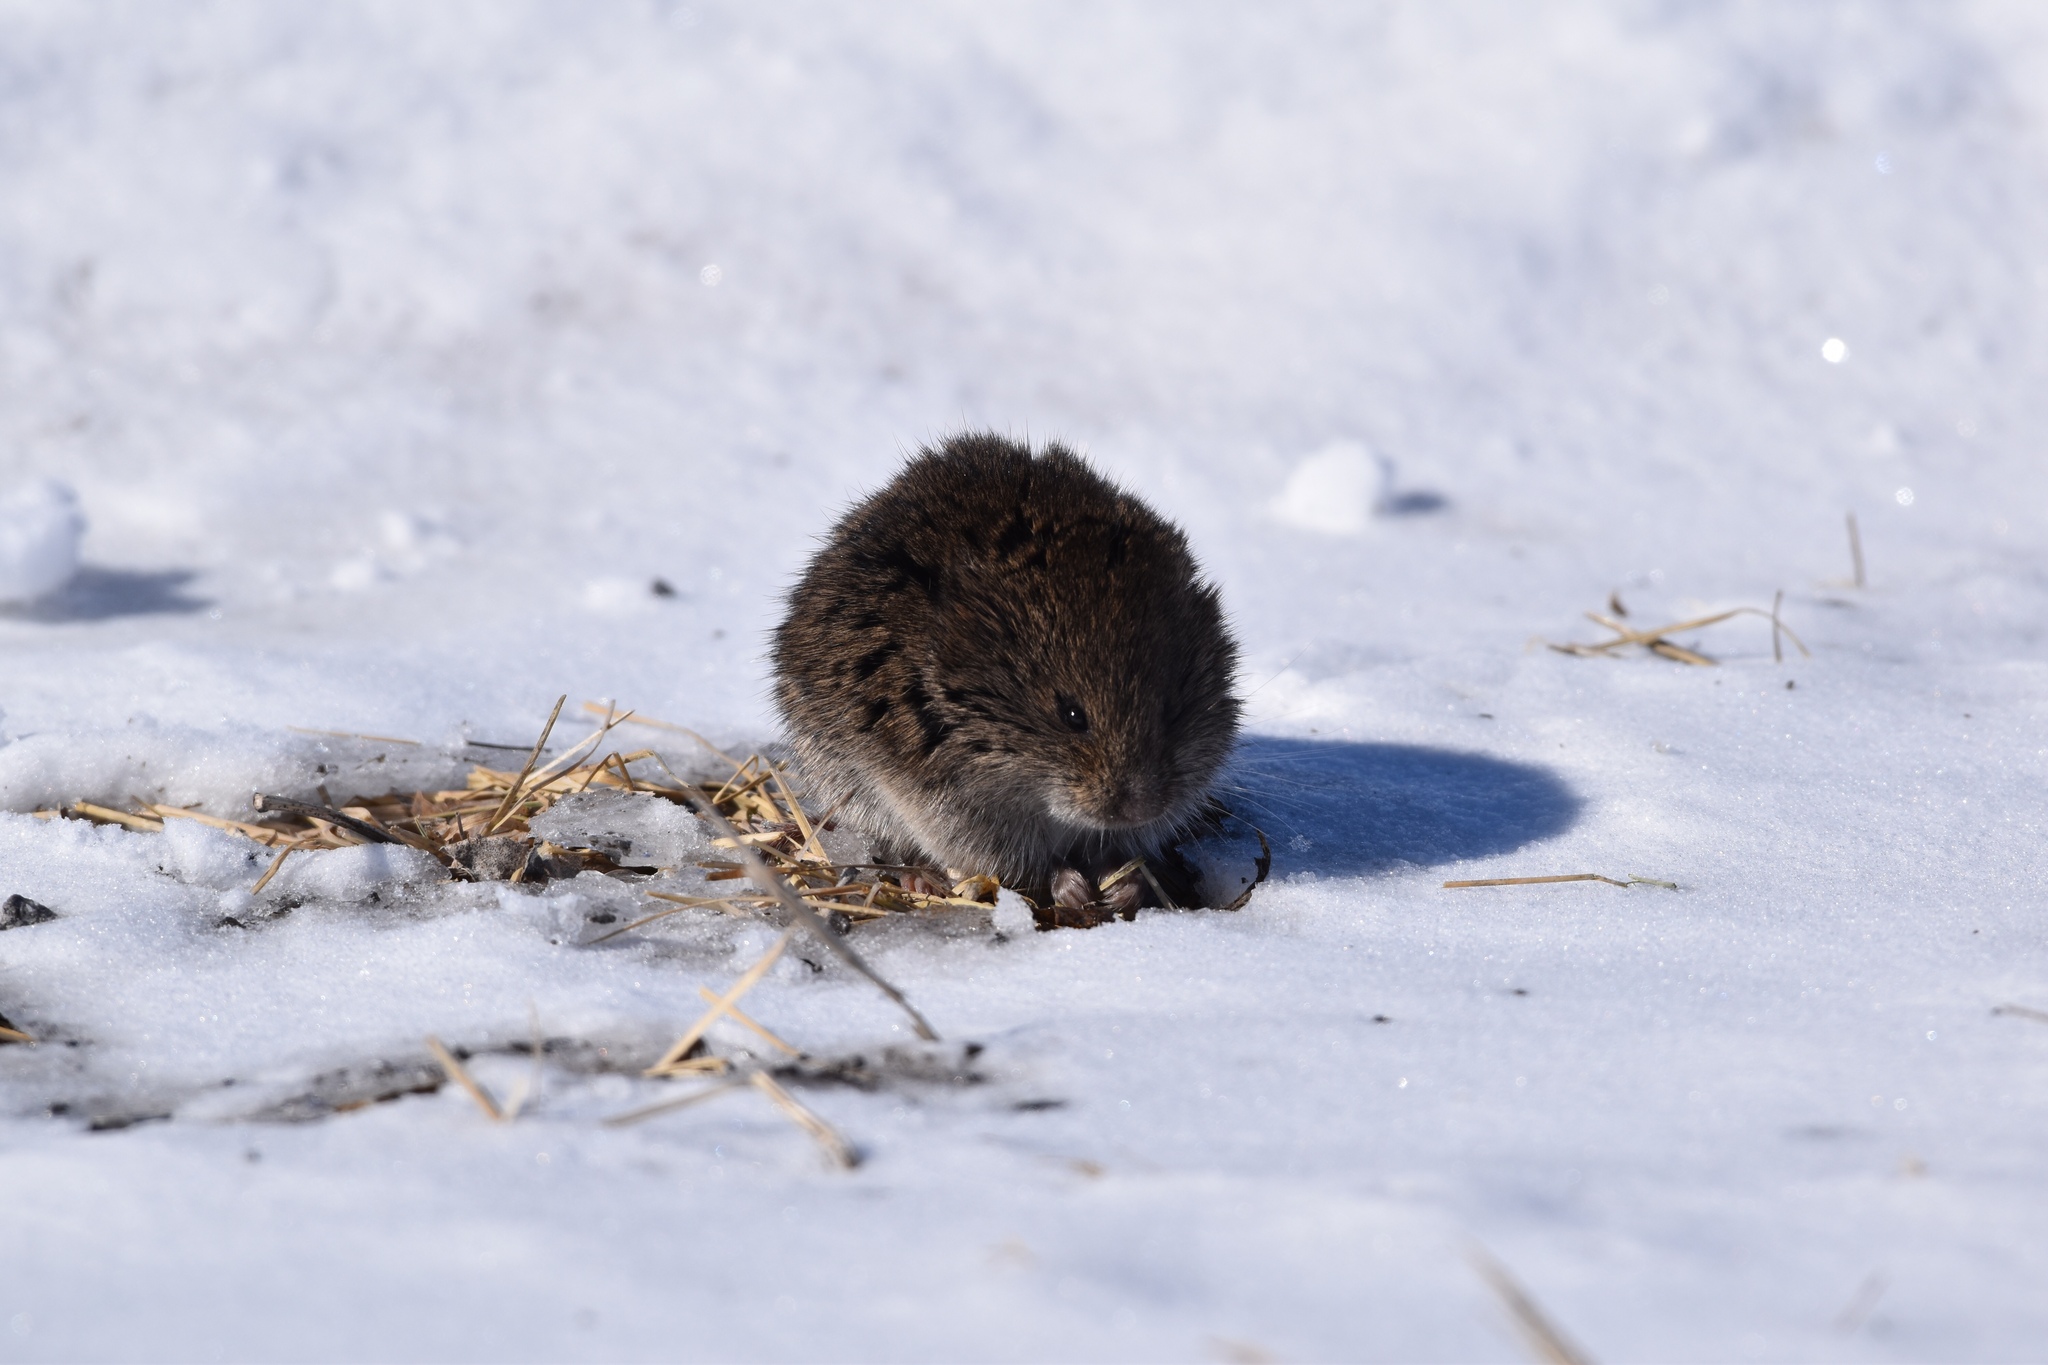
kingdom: Animalia
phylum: Chordata
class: Mammalia
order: Rodentia
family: Cricetidae
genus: Microtus
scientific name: Microtus pennsylvanicus
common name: Meadow vole
